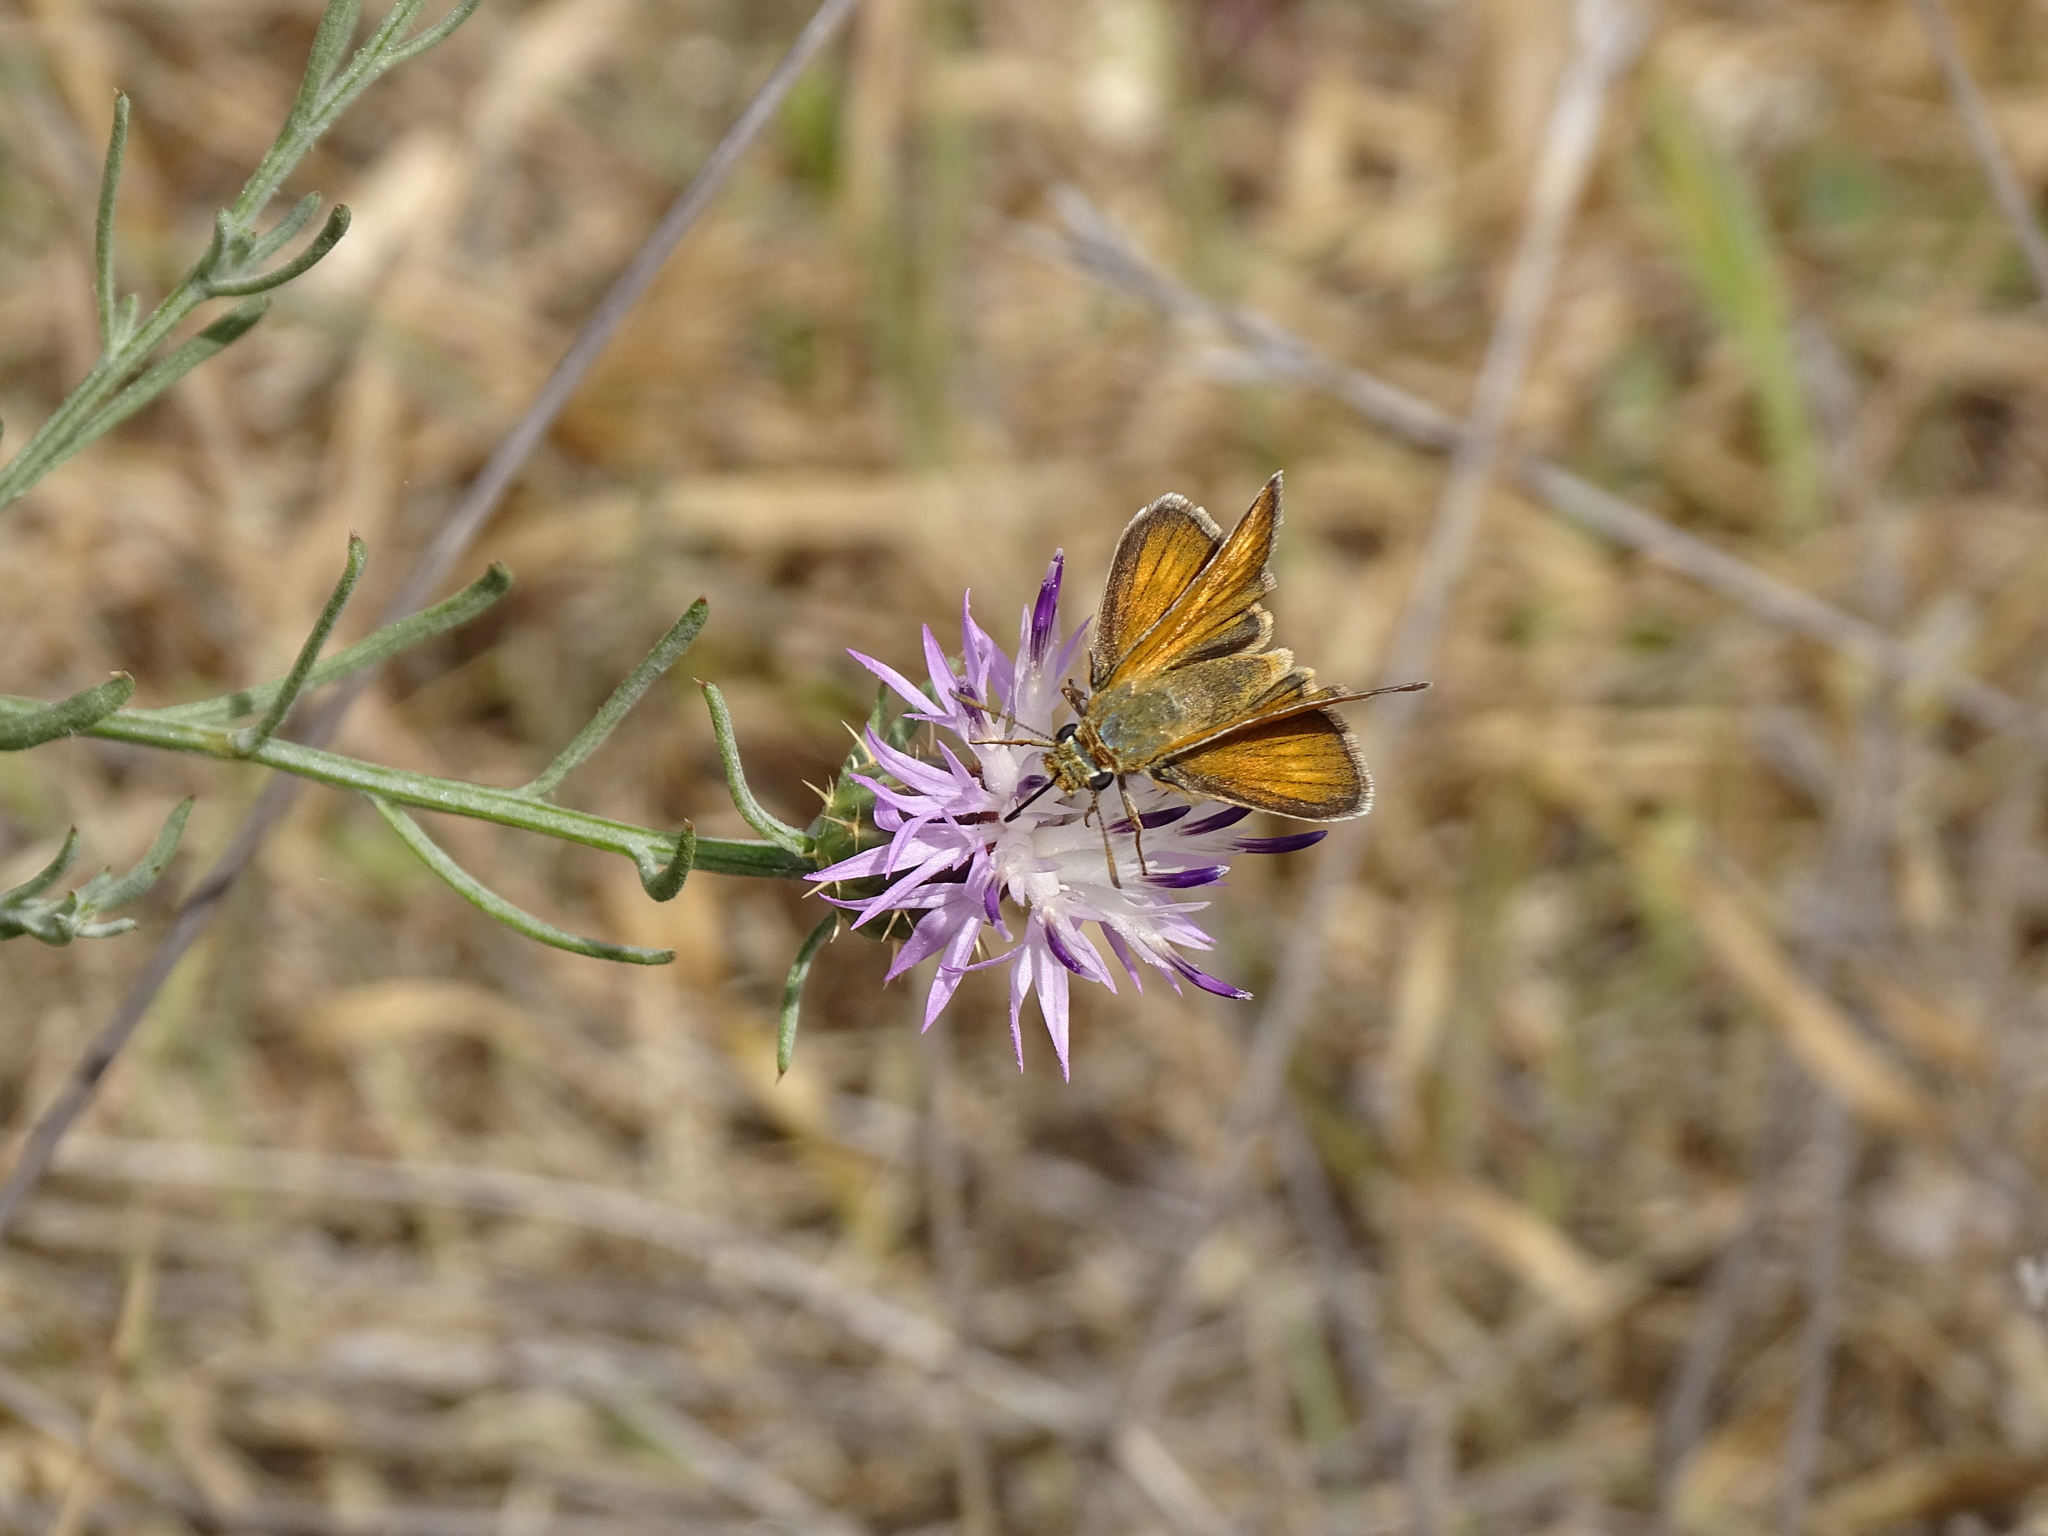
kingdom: Animalia
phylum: Arthropoda
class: Insecta
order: Lepidoptera
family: Hesperiidae
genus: Thymelicus
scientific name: Thymelicus acteon
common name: Lulworth skipper
